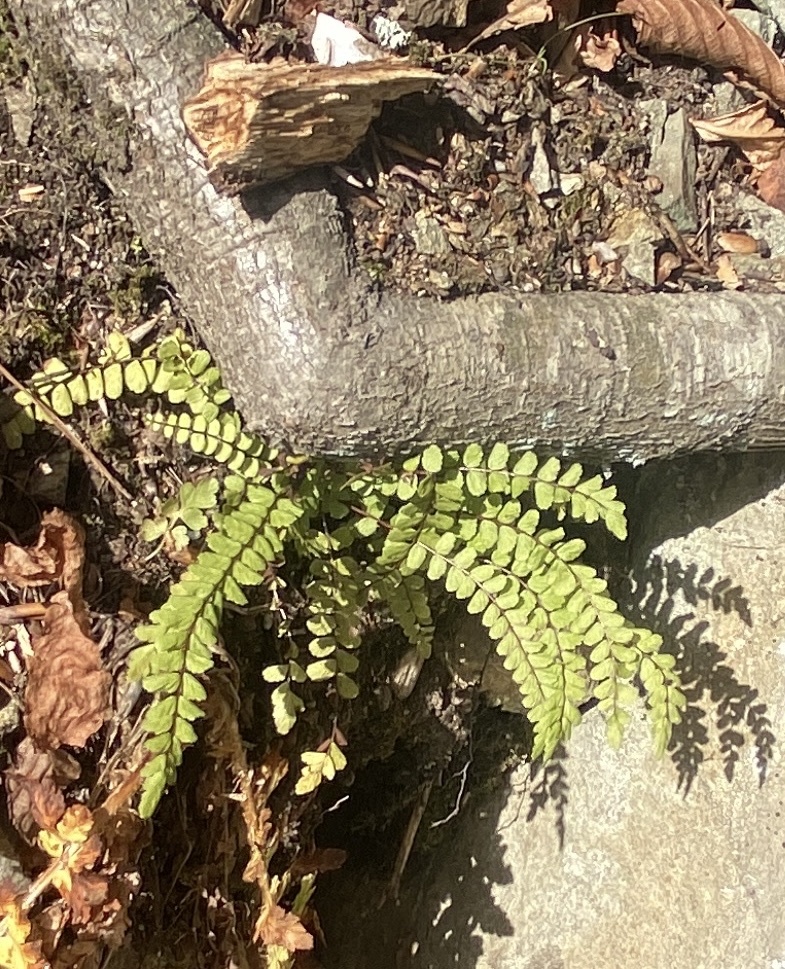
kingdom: Plantae
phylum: Tracheophyta
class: Polypodiopsida
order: Polypodiales
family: Aspleniaceae
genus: Asplenium
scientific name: Asplenium trichomanes
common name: Maidenhair spleenwort
